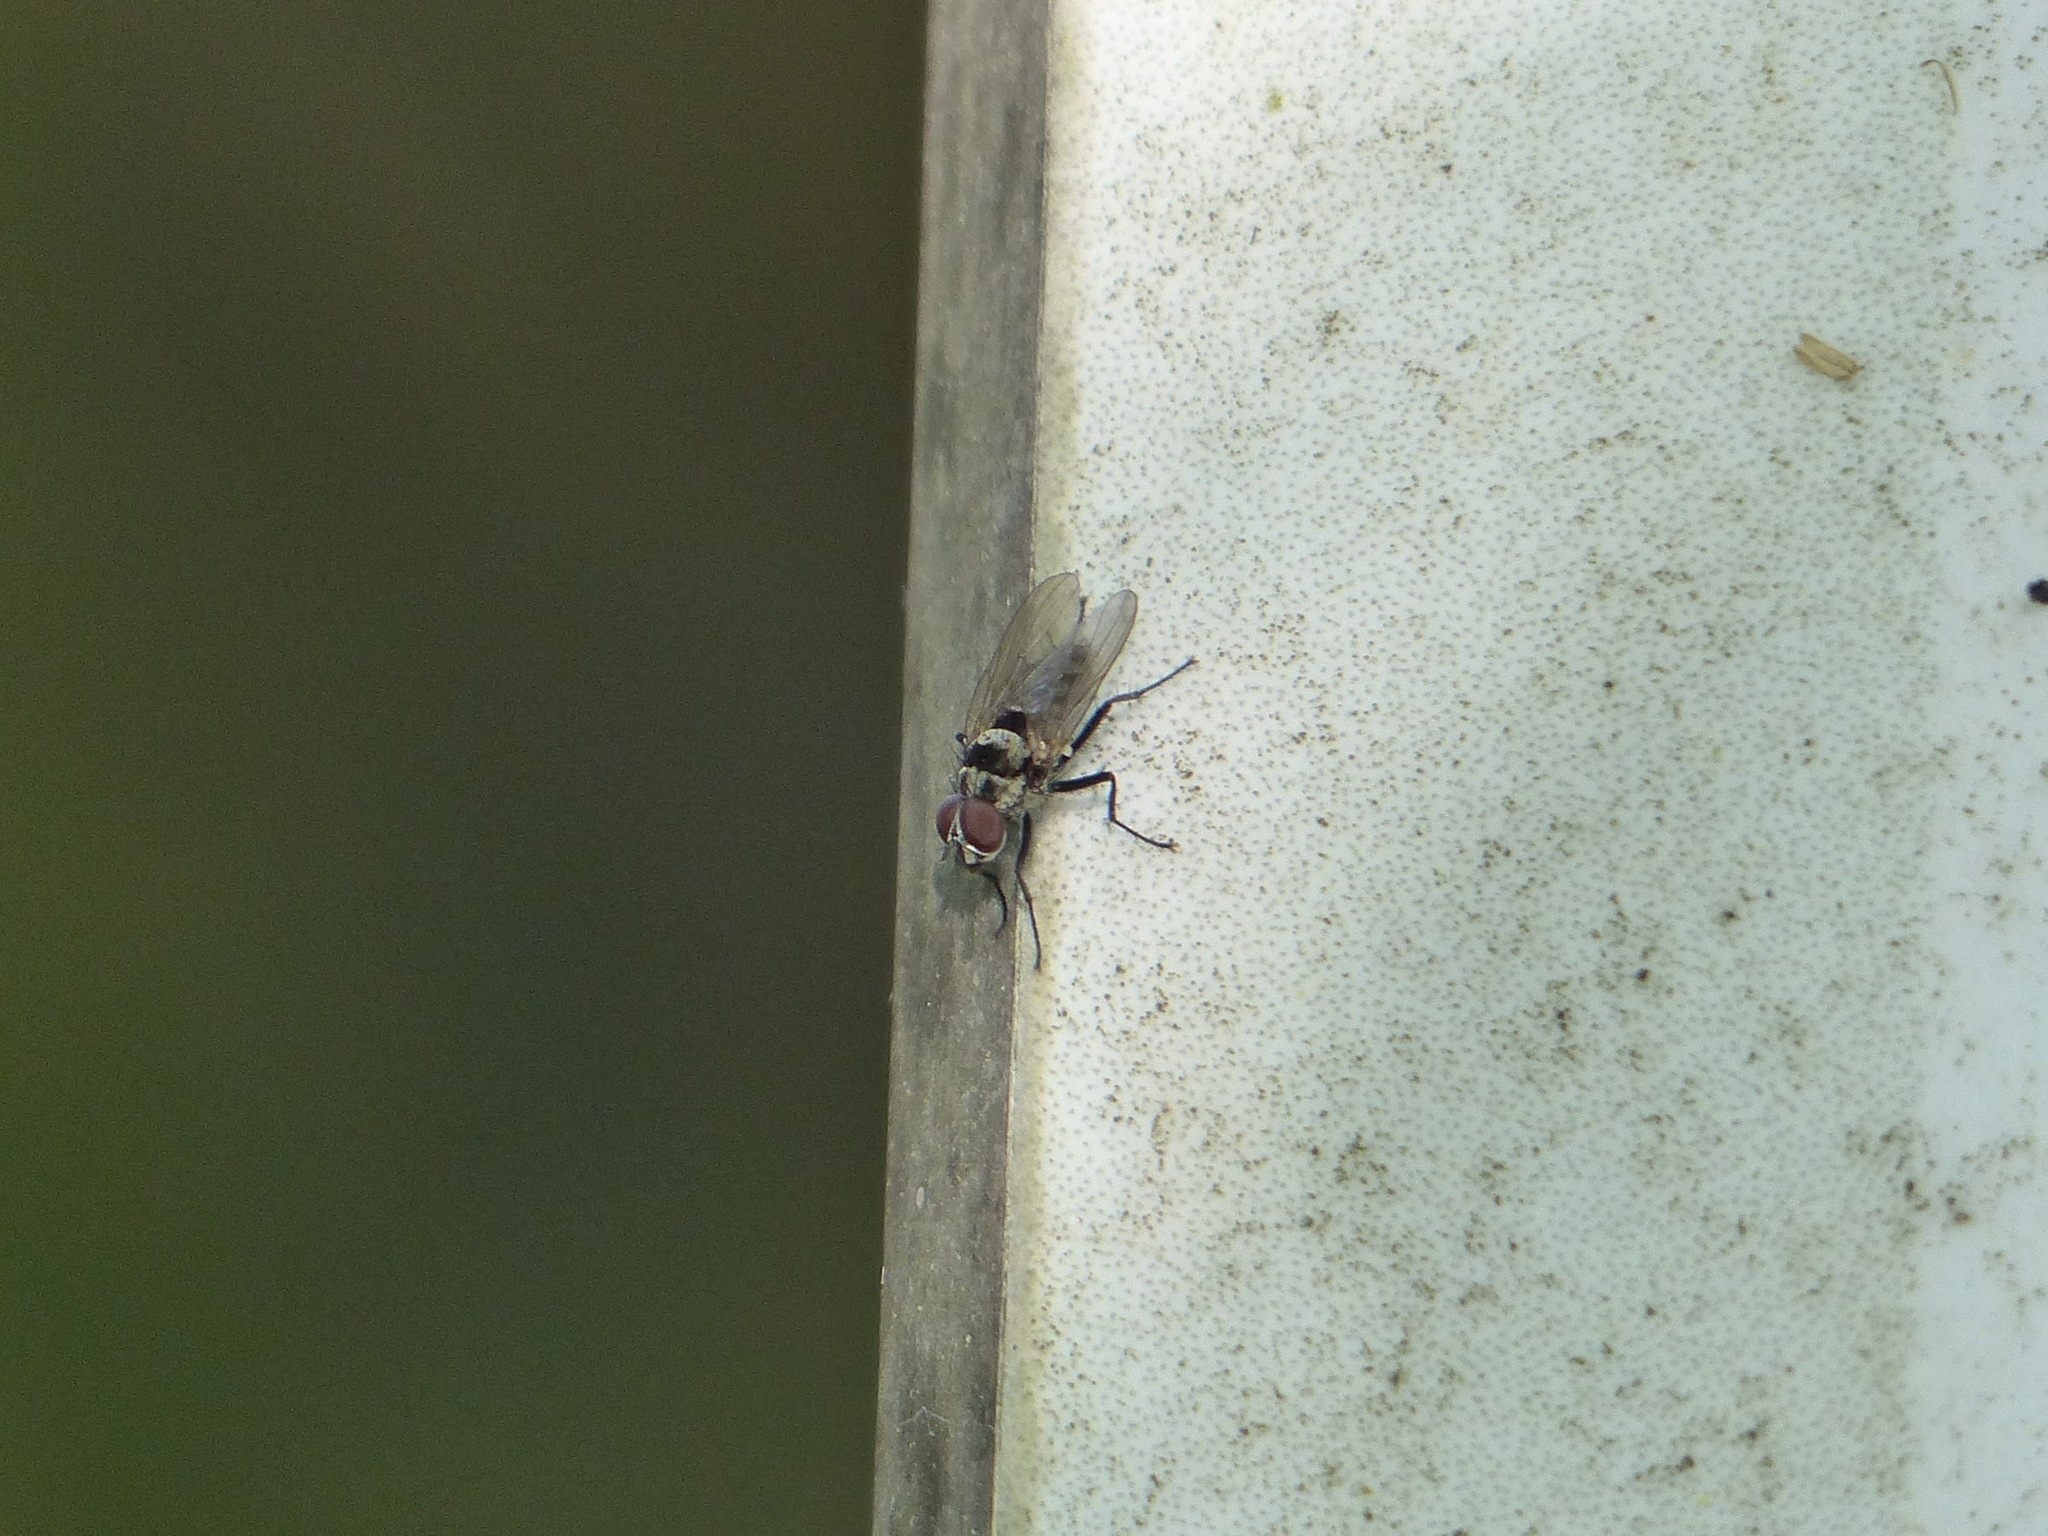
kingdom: Animalia
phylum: Arthropoda
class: Insecta
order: Diptera
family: Anthomyiidae
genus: Anthomyia
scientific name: Anthomyia oculifera
